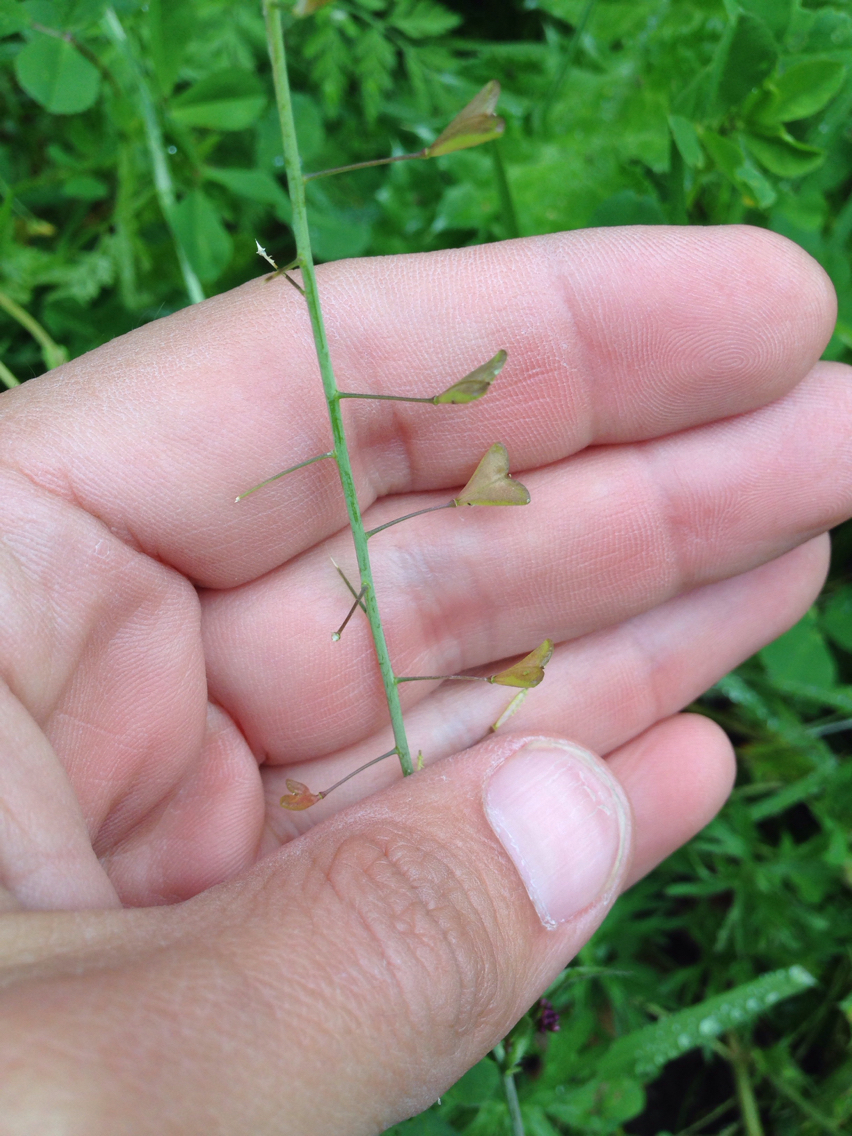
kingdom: Plantae
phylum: Tracheophyta
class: Magnoliopsida
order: Brassicales
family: Brassicaceae
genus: Capsella
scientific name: Capsella bursa-pastoris
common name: Shepherd's purse
